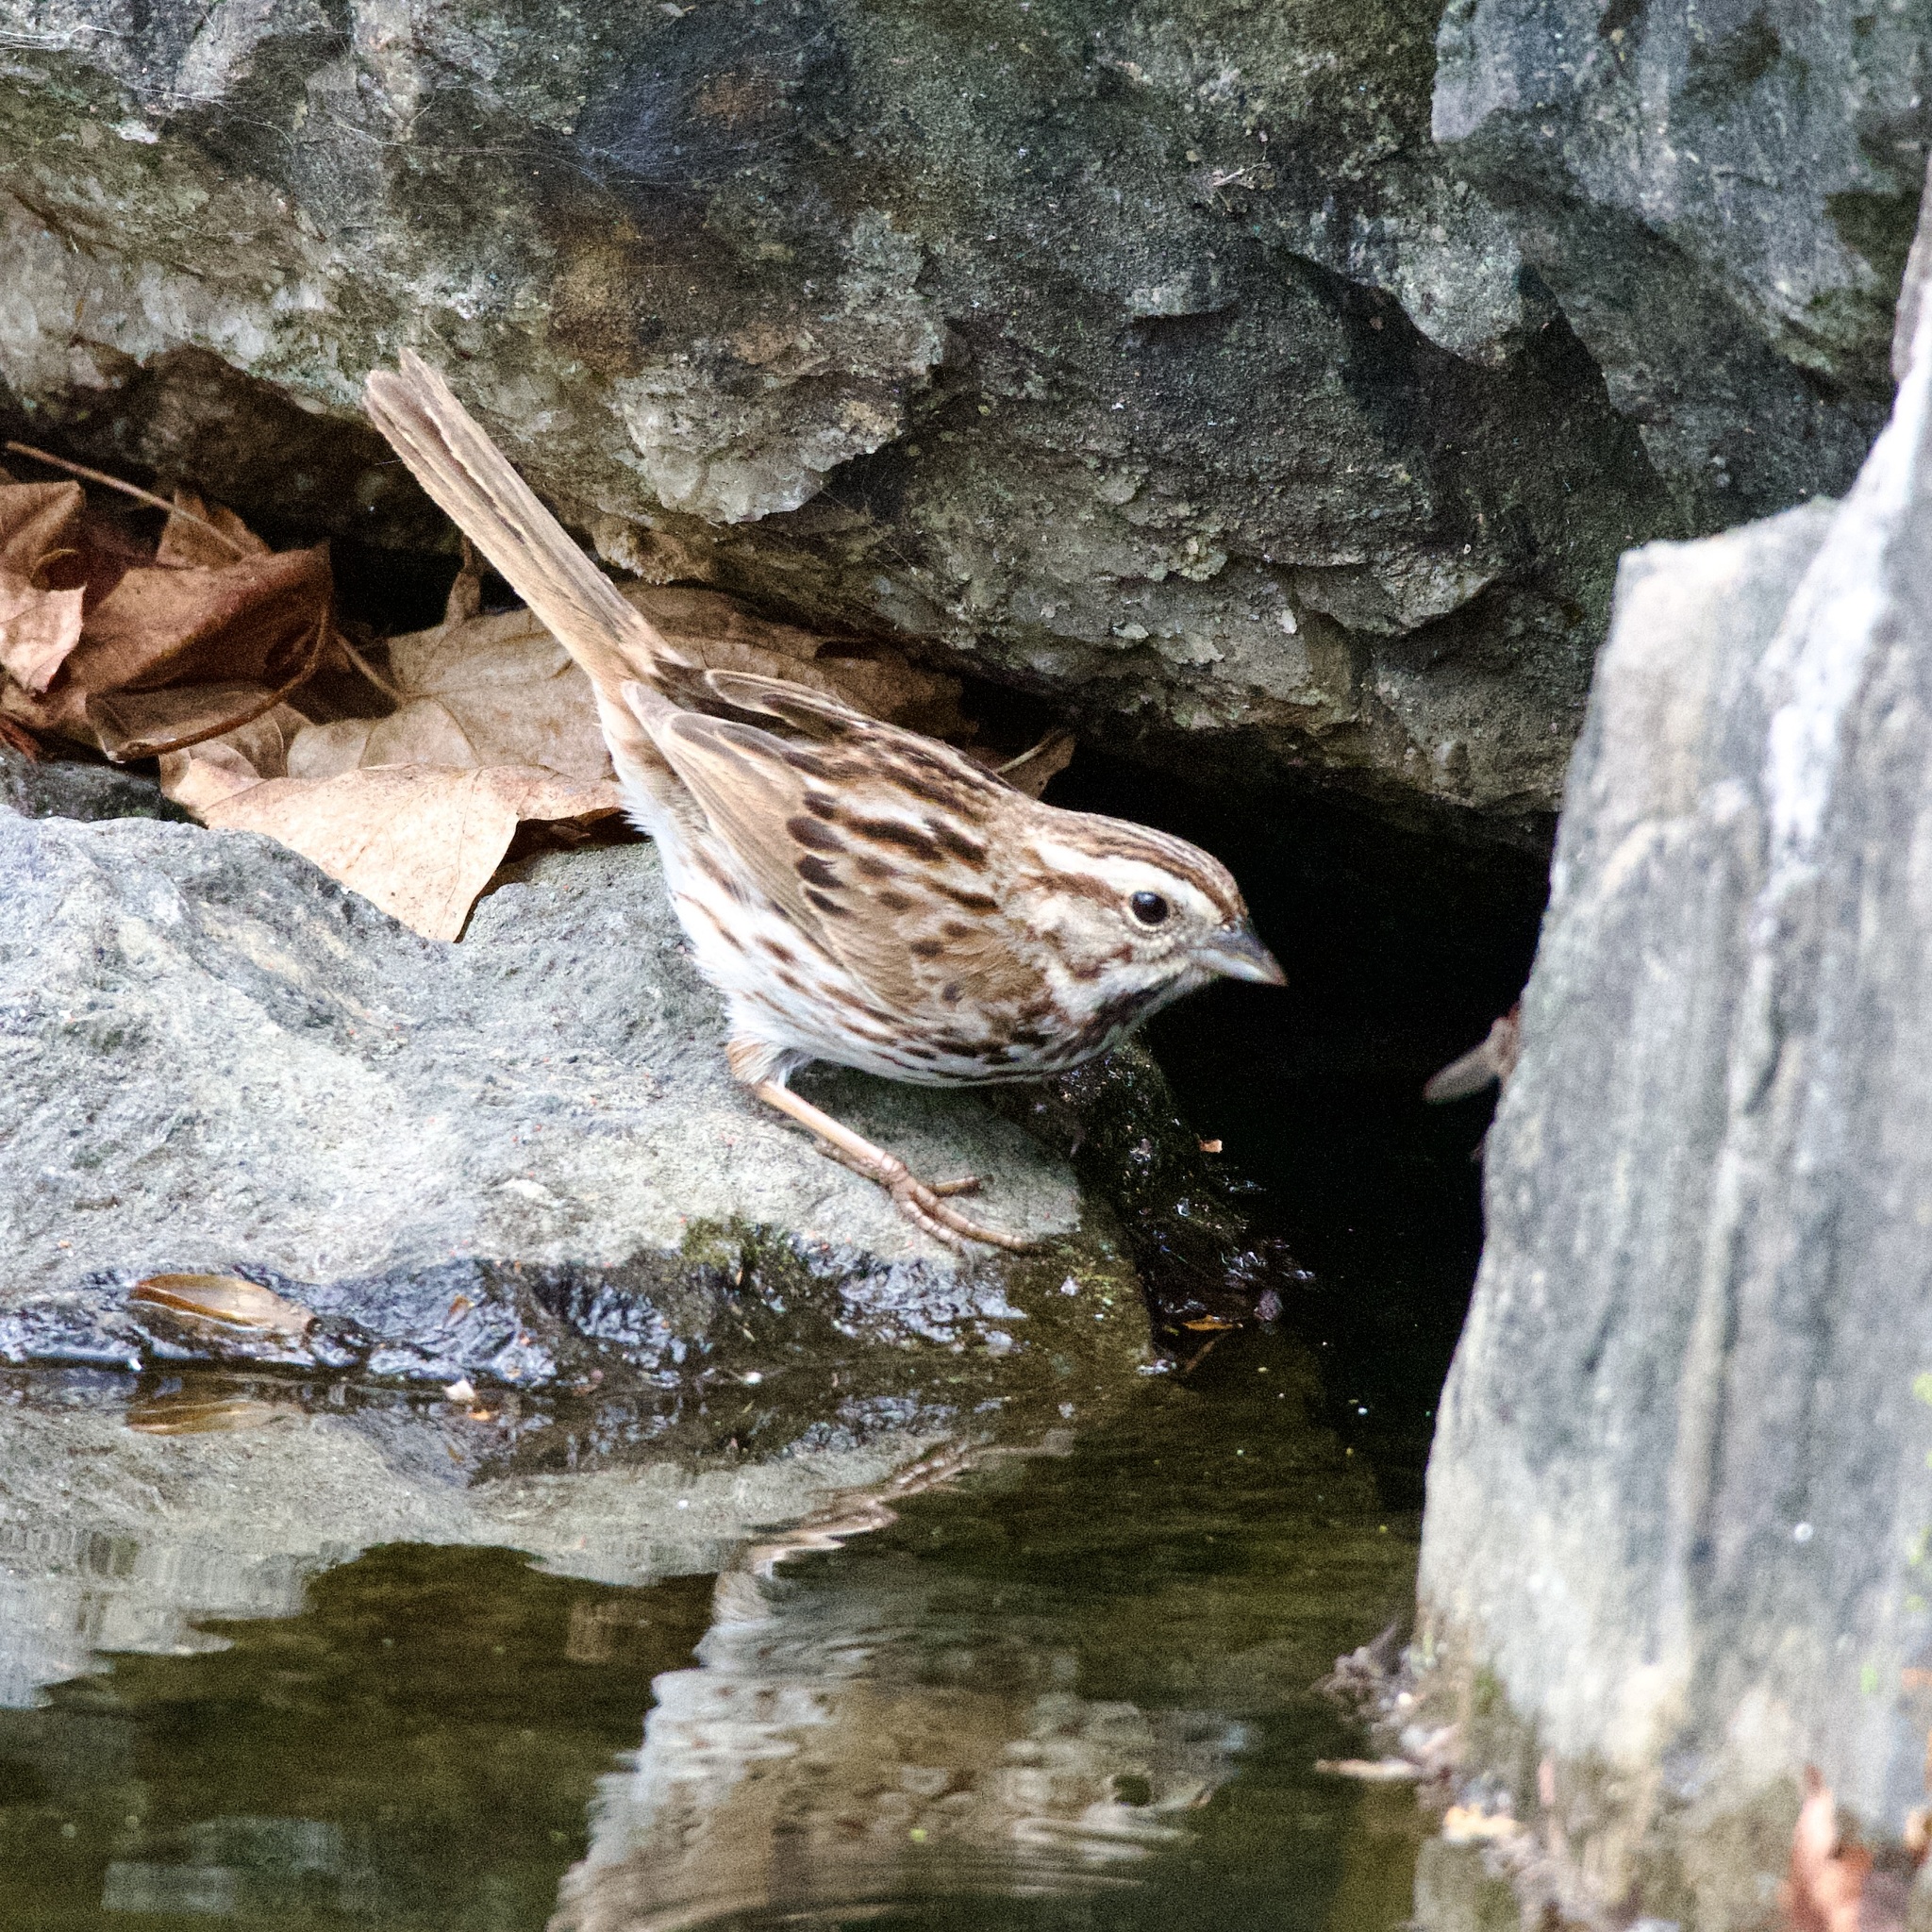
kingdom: Animalia
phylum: Chordata
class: Aves
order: Passeriformes
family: Passerellidae
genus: Melospiza
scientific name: Melospiza melodia
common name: Song sparrow
